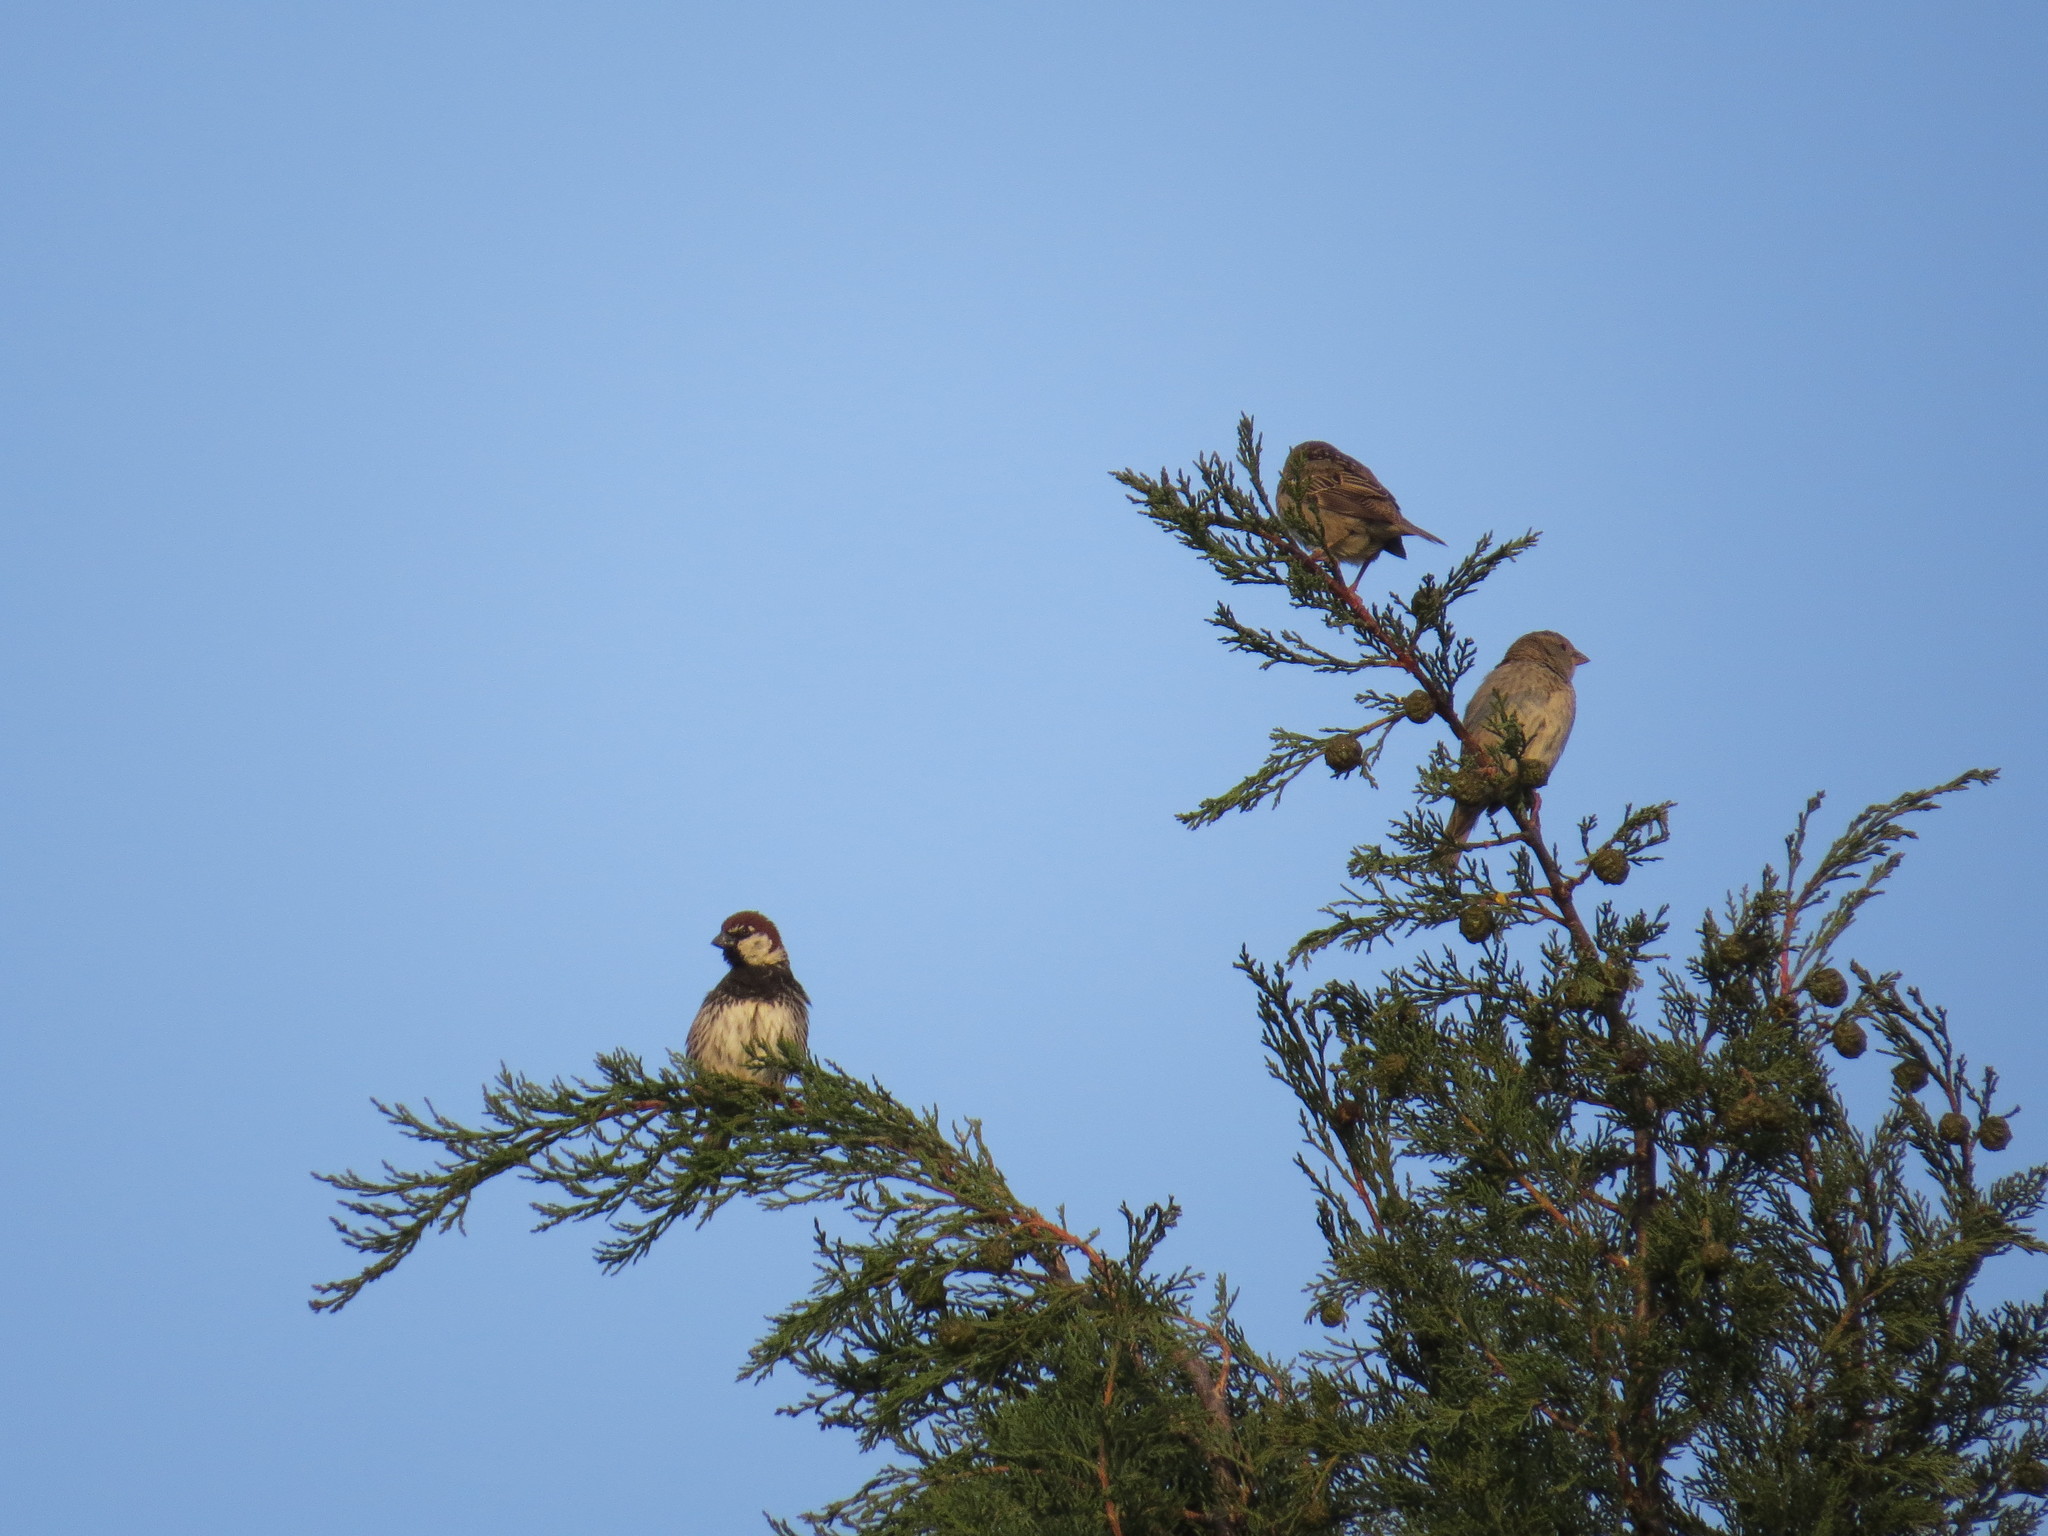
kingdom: Animalia
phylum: Chordata
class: Aves
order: Passeriformes
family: Passeridae
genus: Passer
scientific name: Passer hispaniolensis
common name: Spanish sparrow
